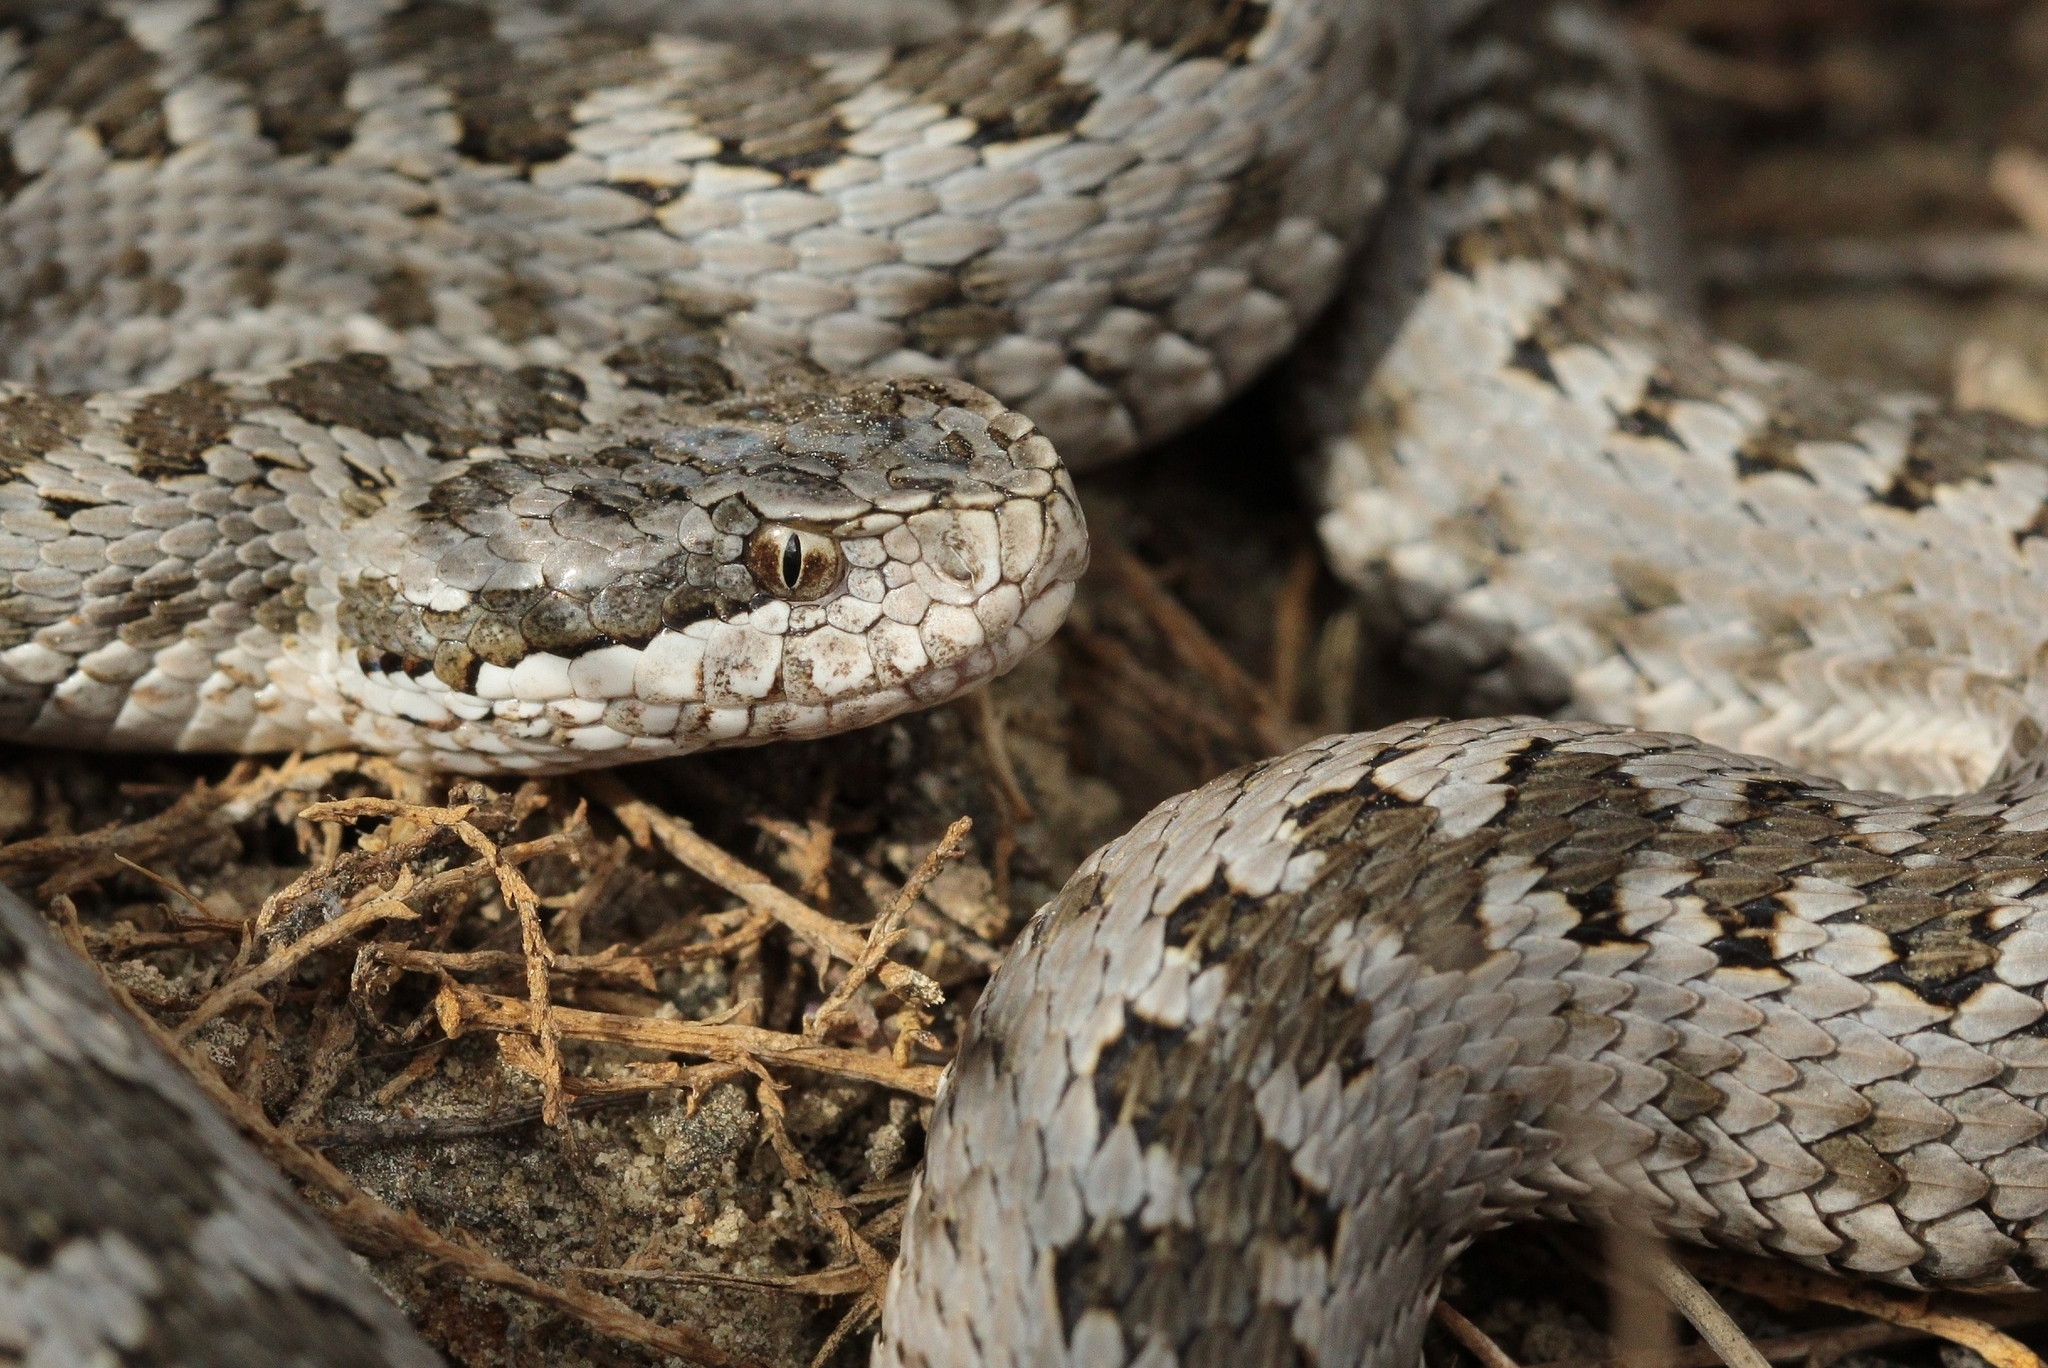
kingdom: Animalia
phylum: Chordata
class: Squamata
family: Viperidae
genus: Vipera
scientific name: Vipera renardi
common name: Eastern steppe viper
